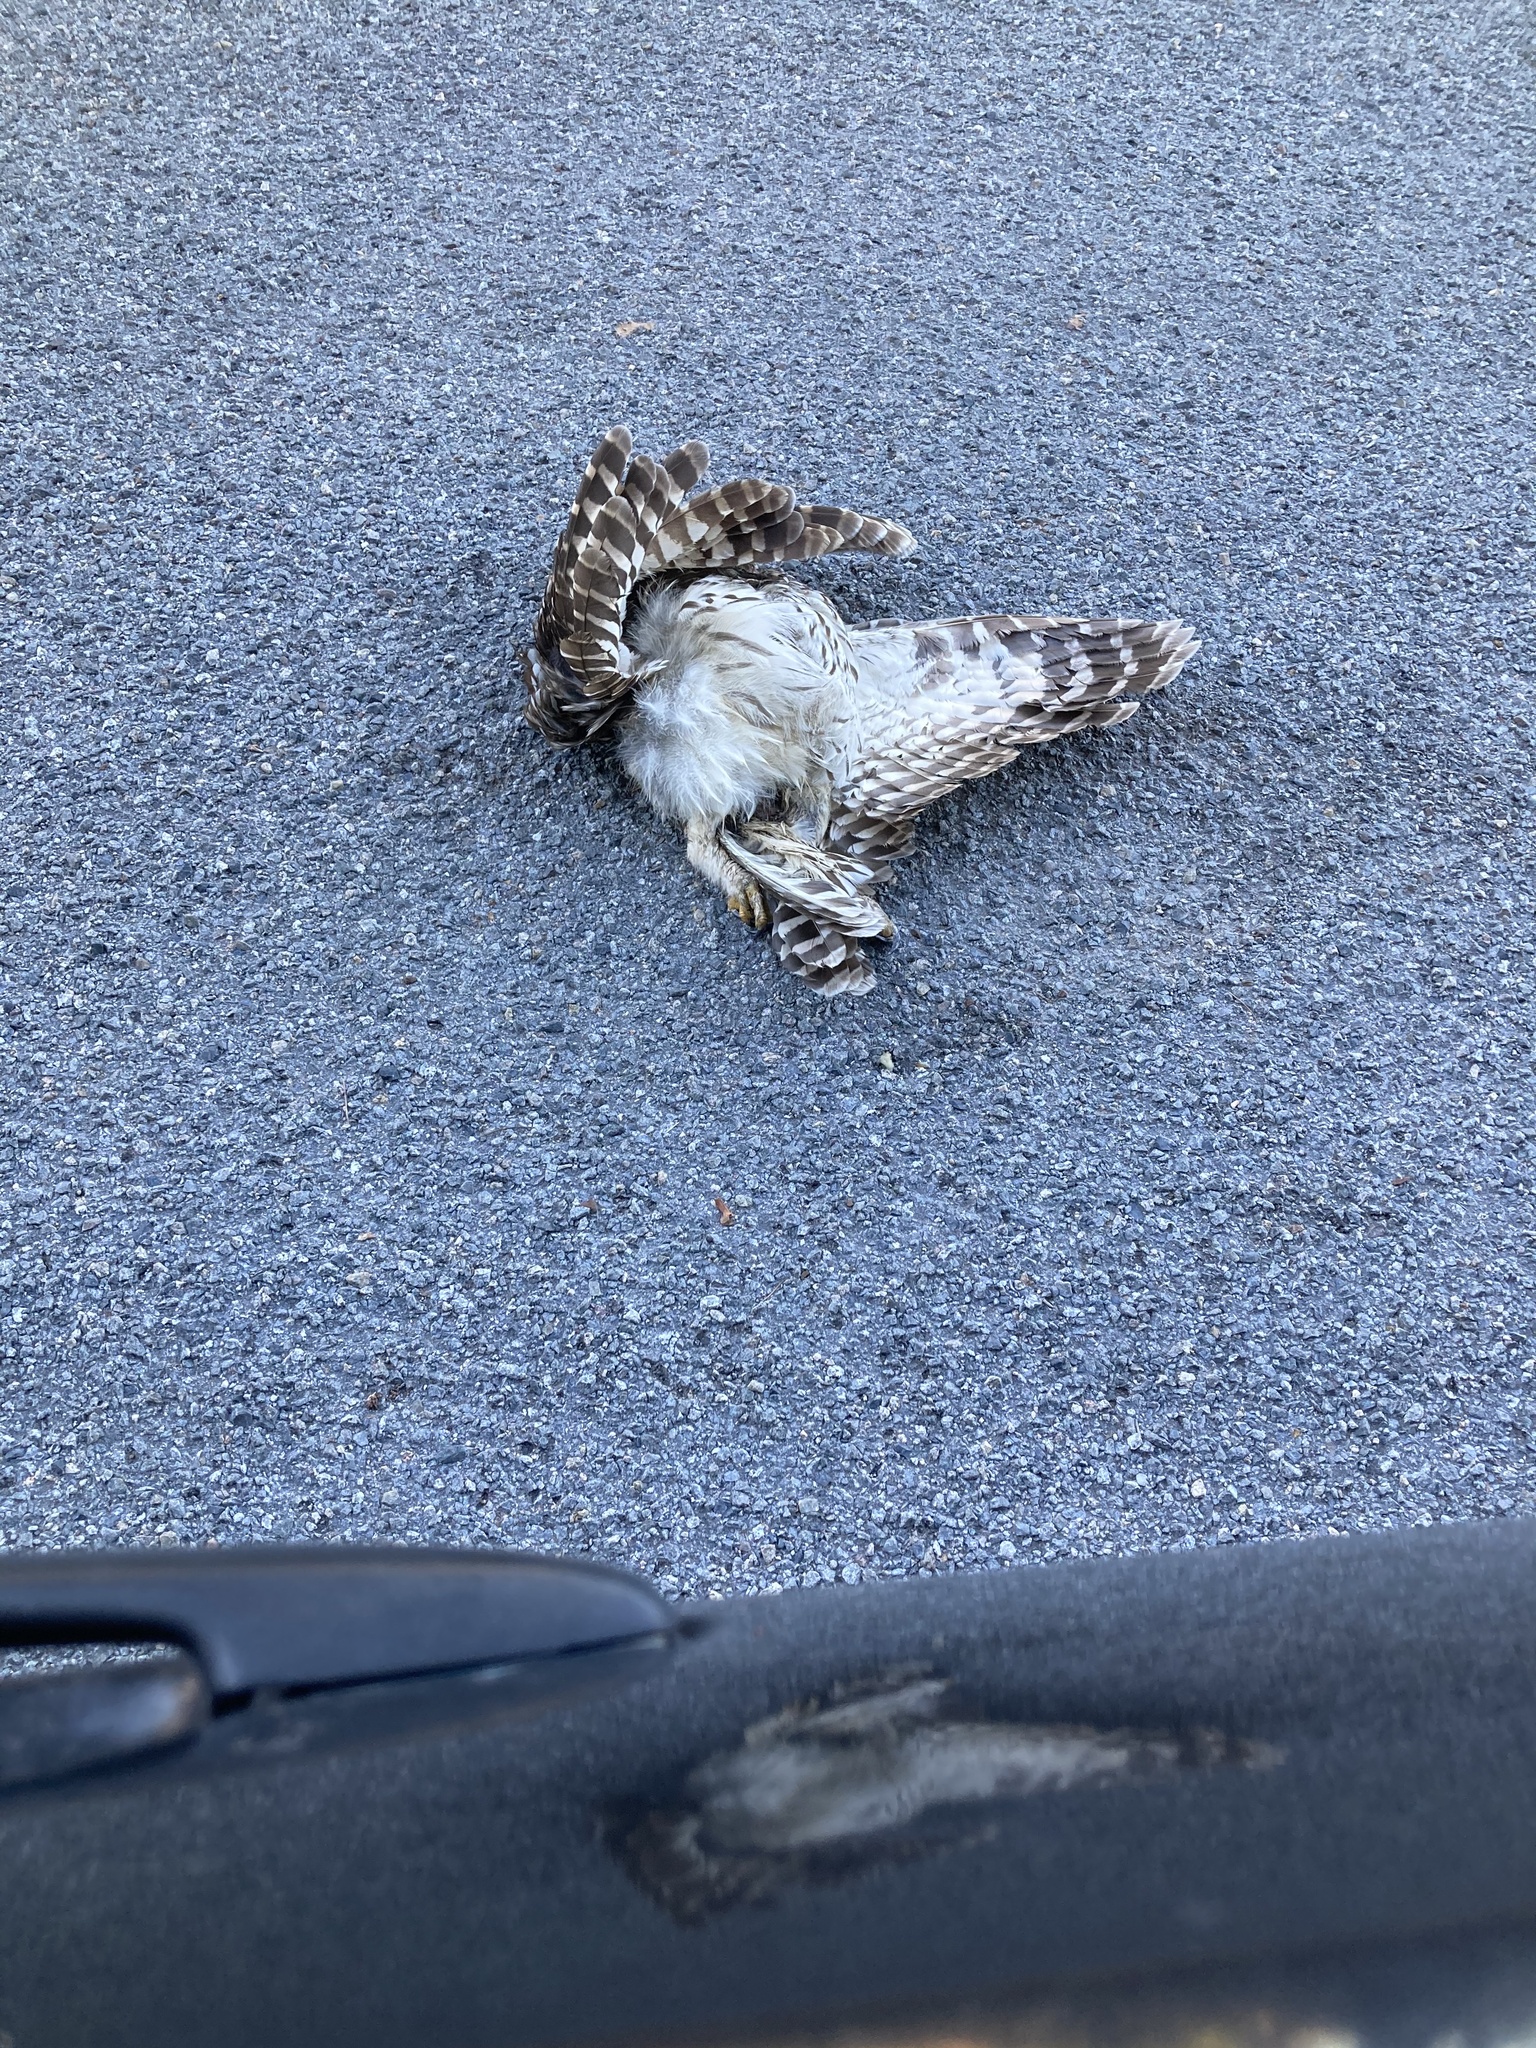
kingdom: Animalia
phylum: Chordata
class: Aves
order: Strigiformes
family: Strigidae
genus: Strix
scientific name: Strix varia
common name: Barred owl
